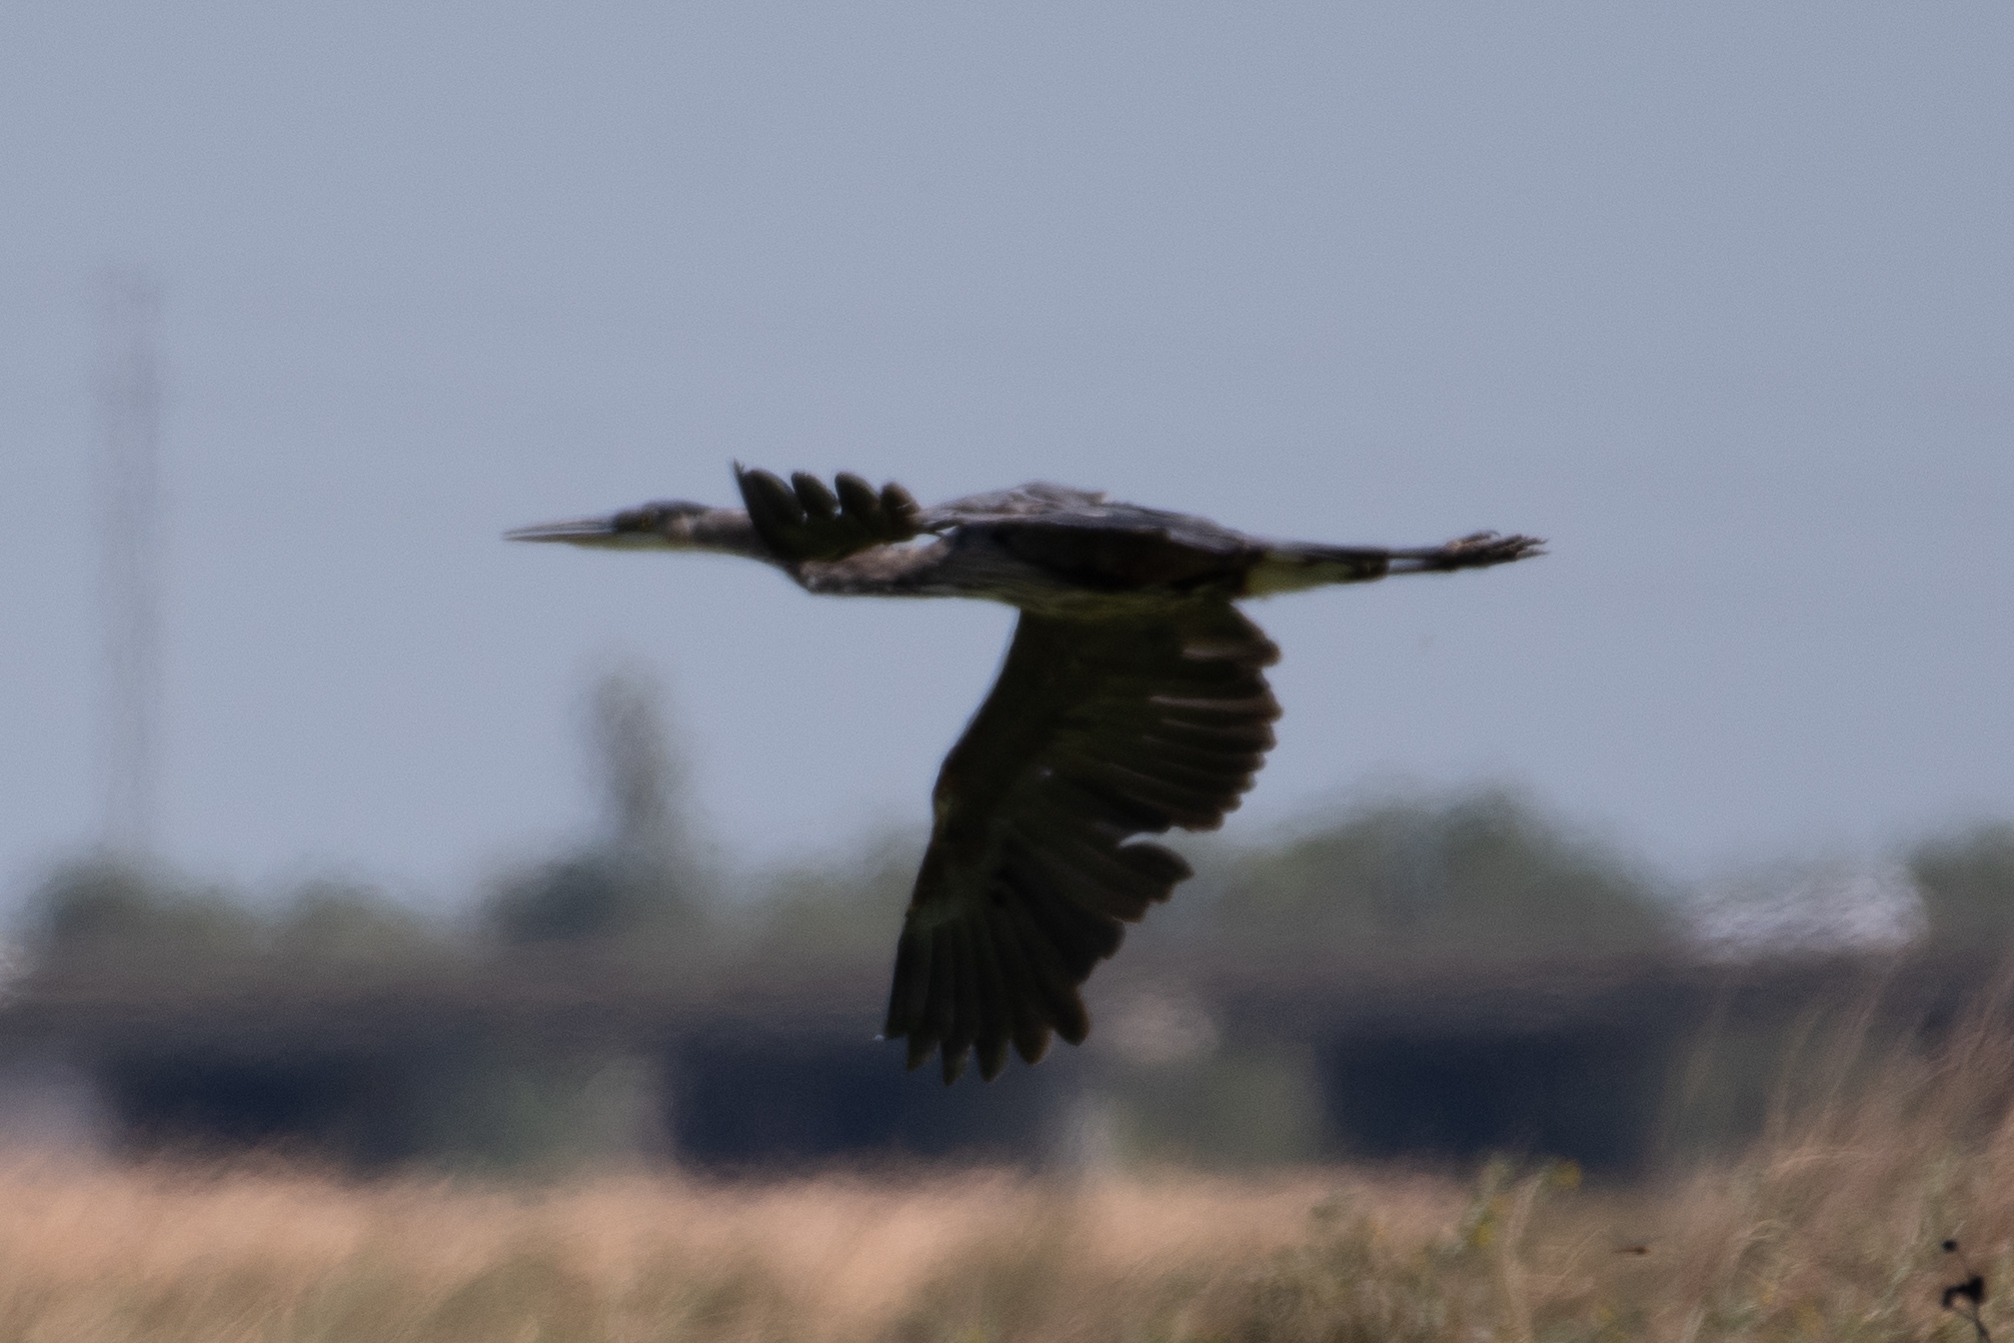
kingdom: Animalia
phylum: Chordata
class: Aves
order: Pelecaniformes
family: Ardeidae
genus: Ardea
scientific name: Ardea herodias
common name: Great blue heron
